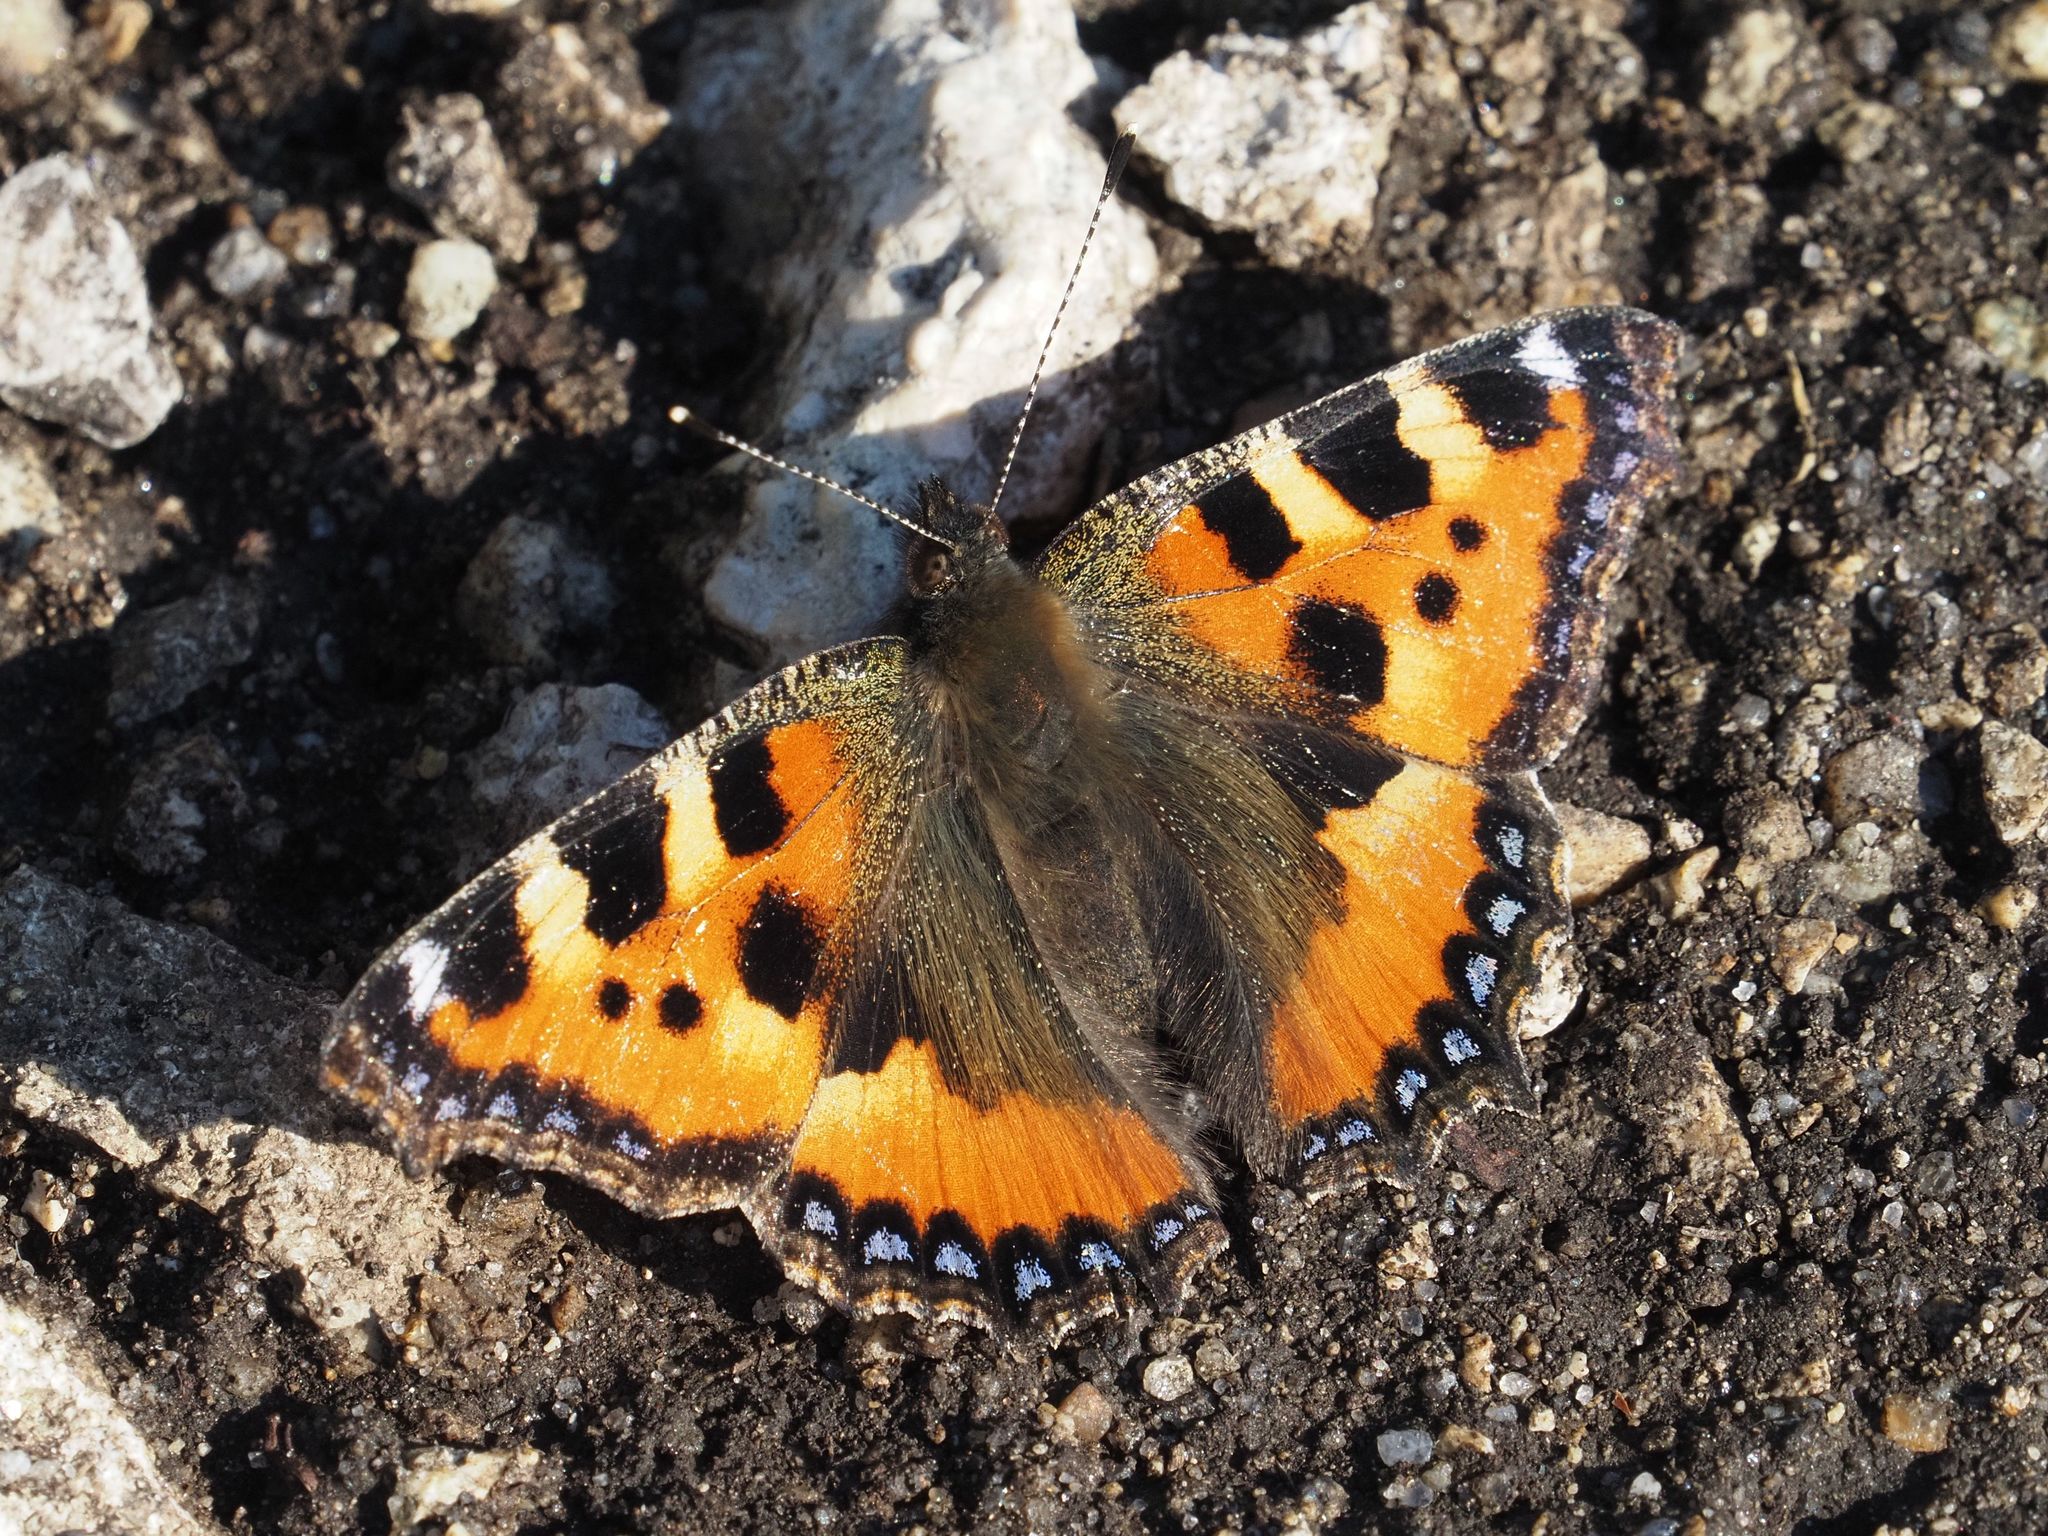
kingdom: Animalia
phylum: Arthropoda
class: Insecta
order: Lepidoptera
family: Nymphalidae
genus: Aglais
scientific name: Aglais urticae
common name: Small tortoiseshell
